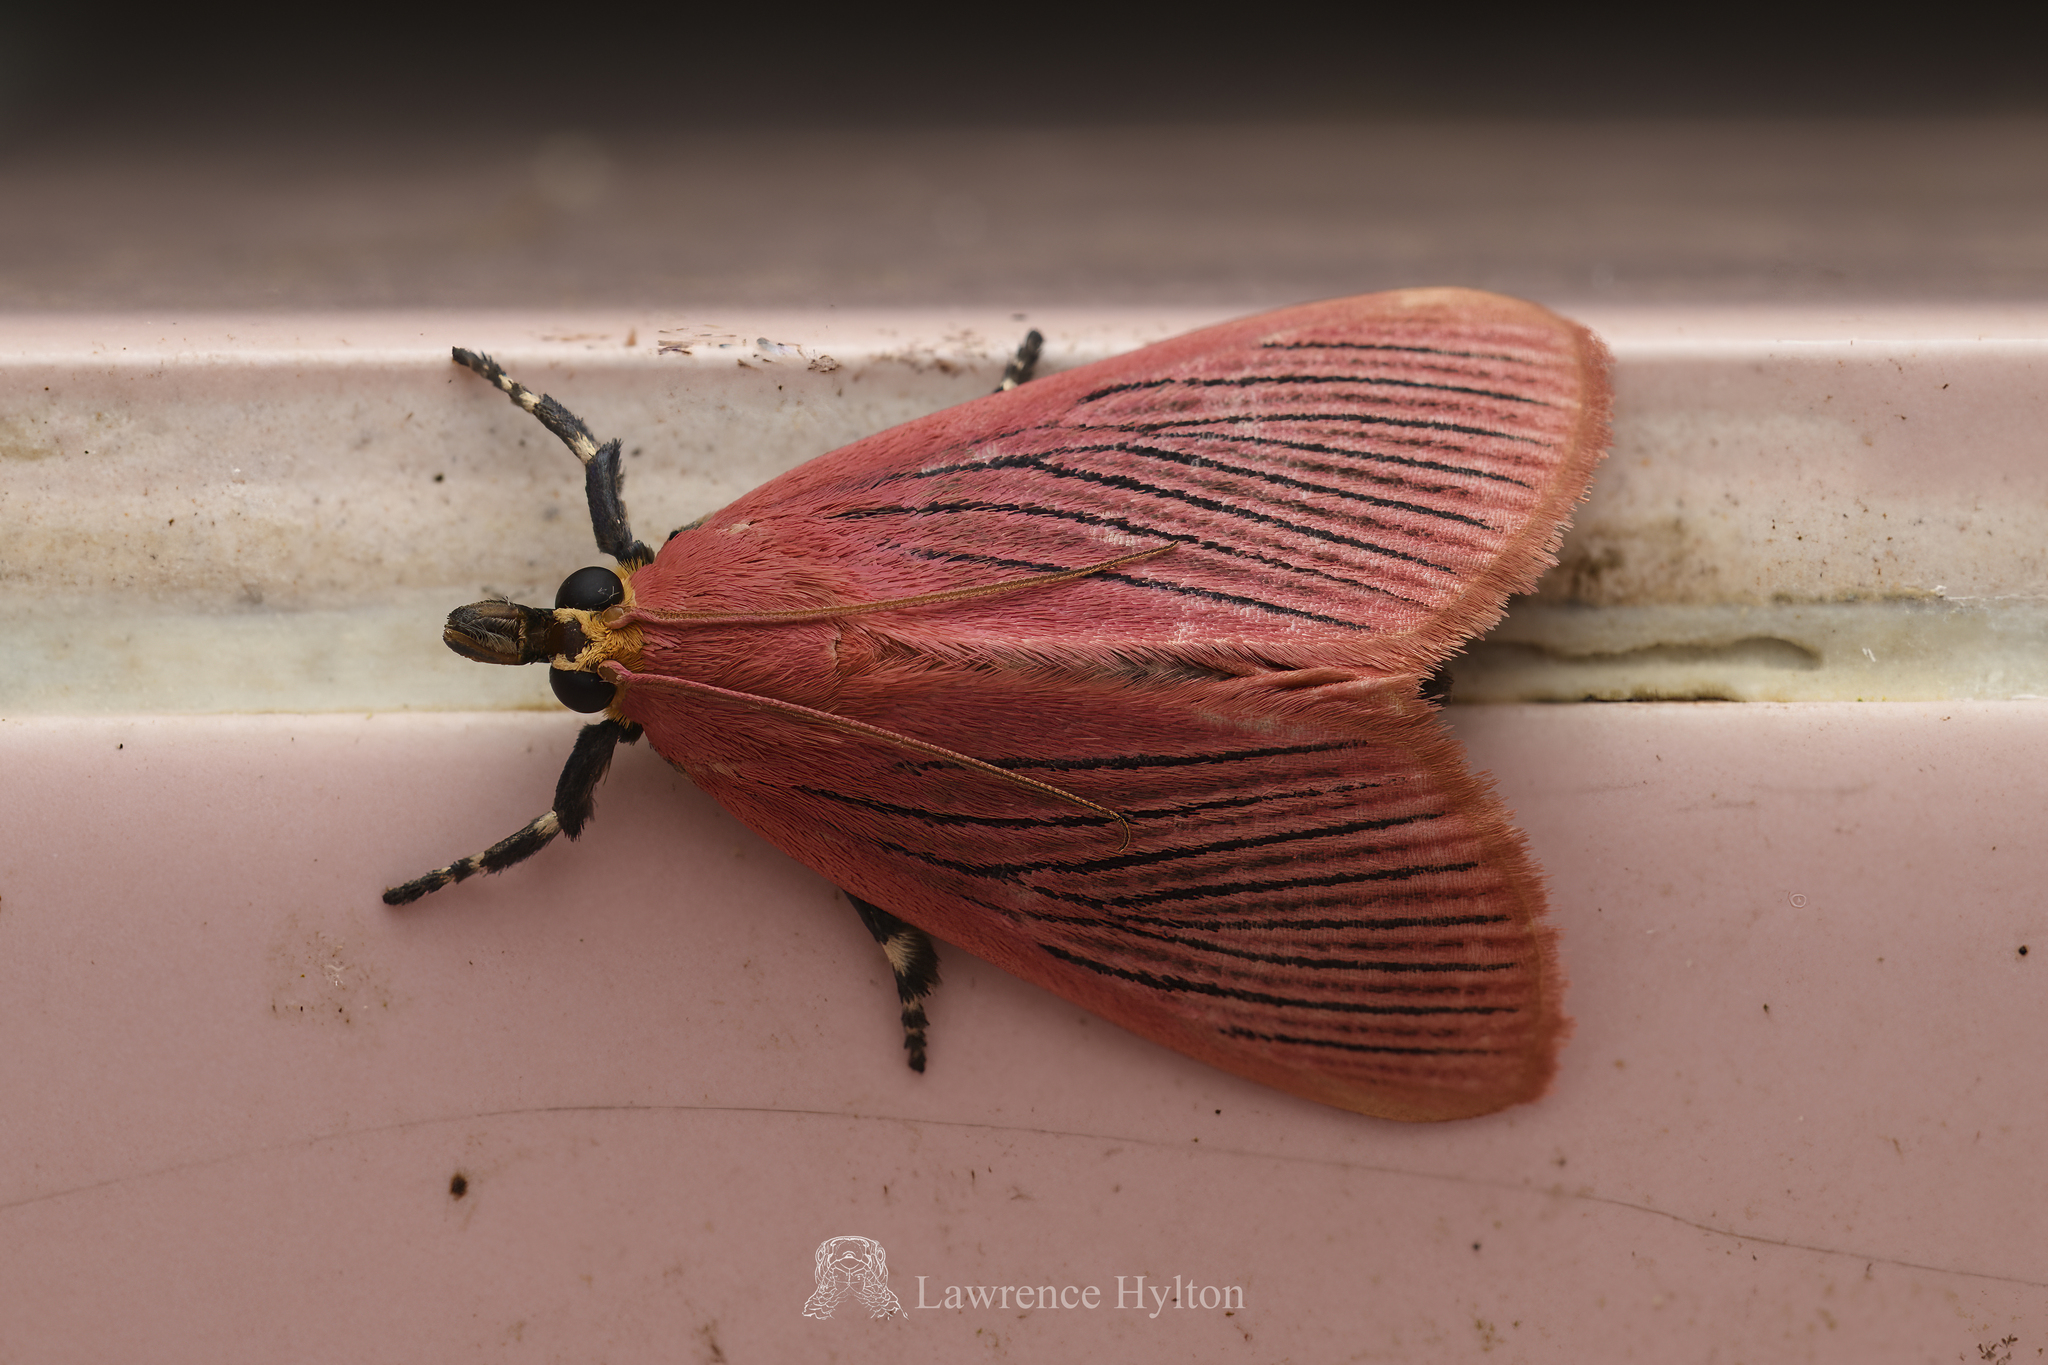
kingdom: Animalia
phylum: Arthropoda
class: Insecta
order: Lepidoptera
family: Pyralidae
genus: Arctioblepsis
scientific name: Arctioblepsis rubida
